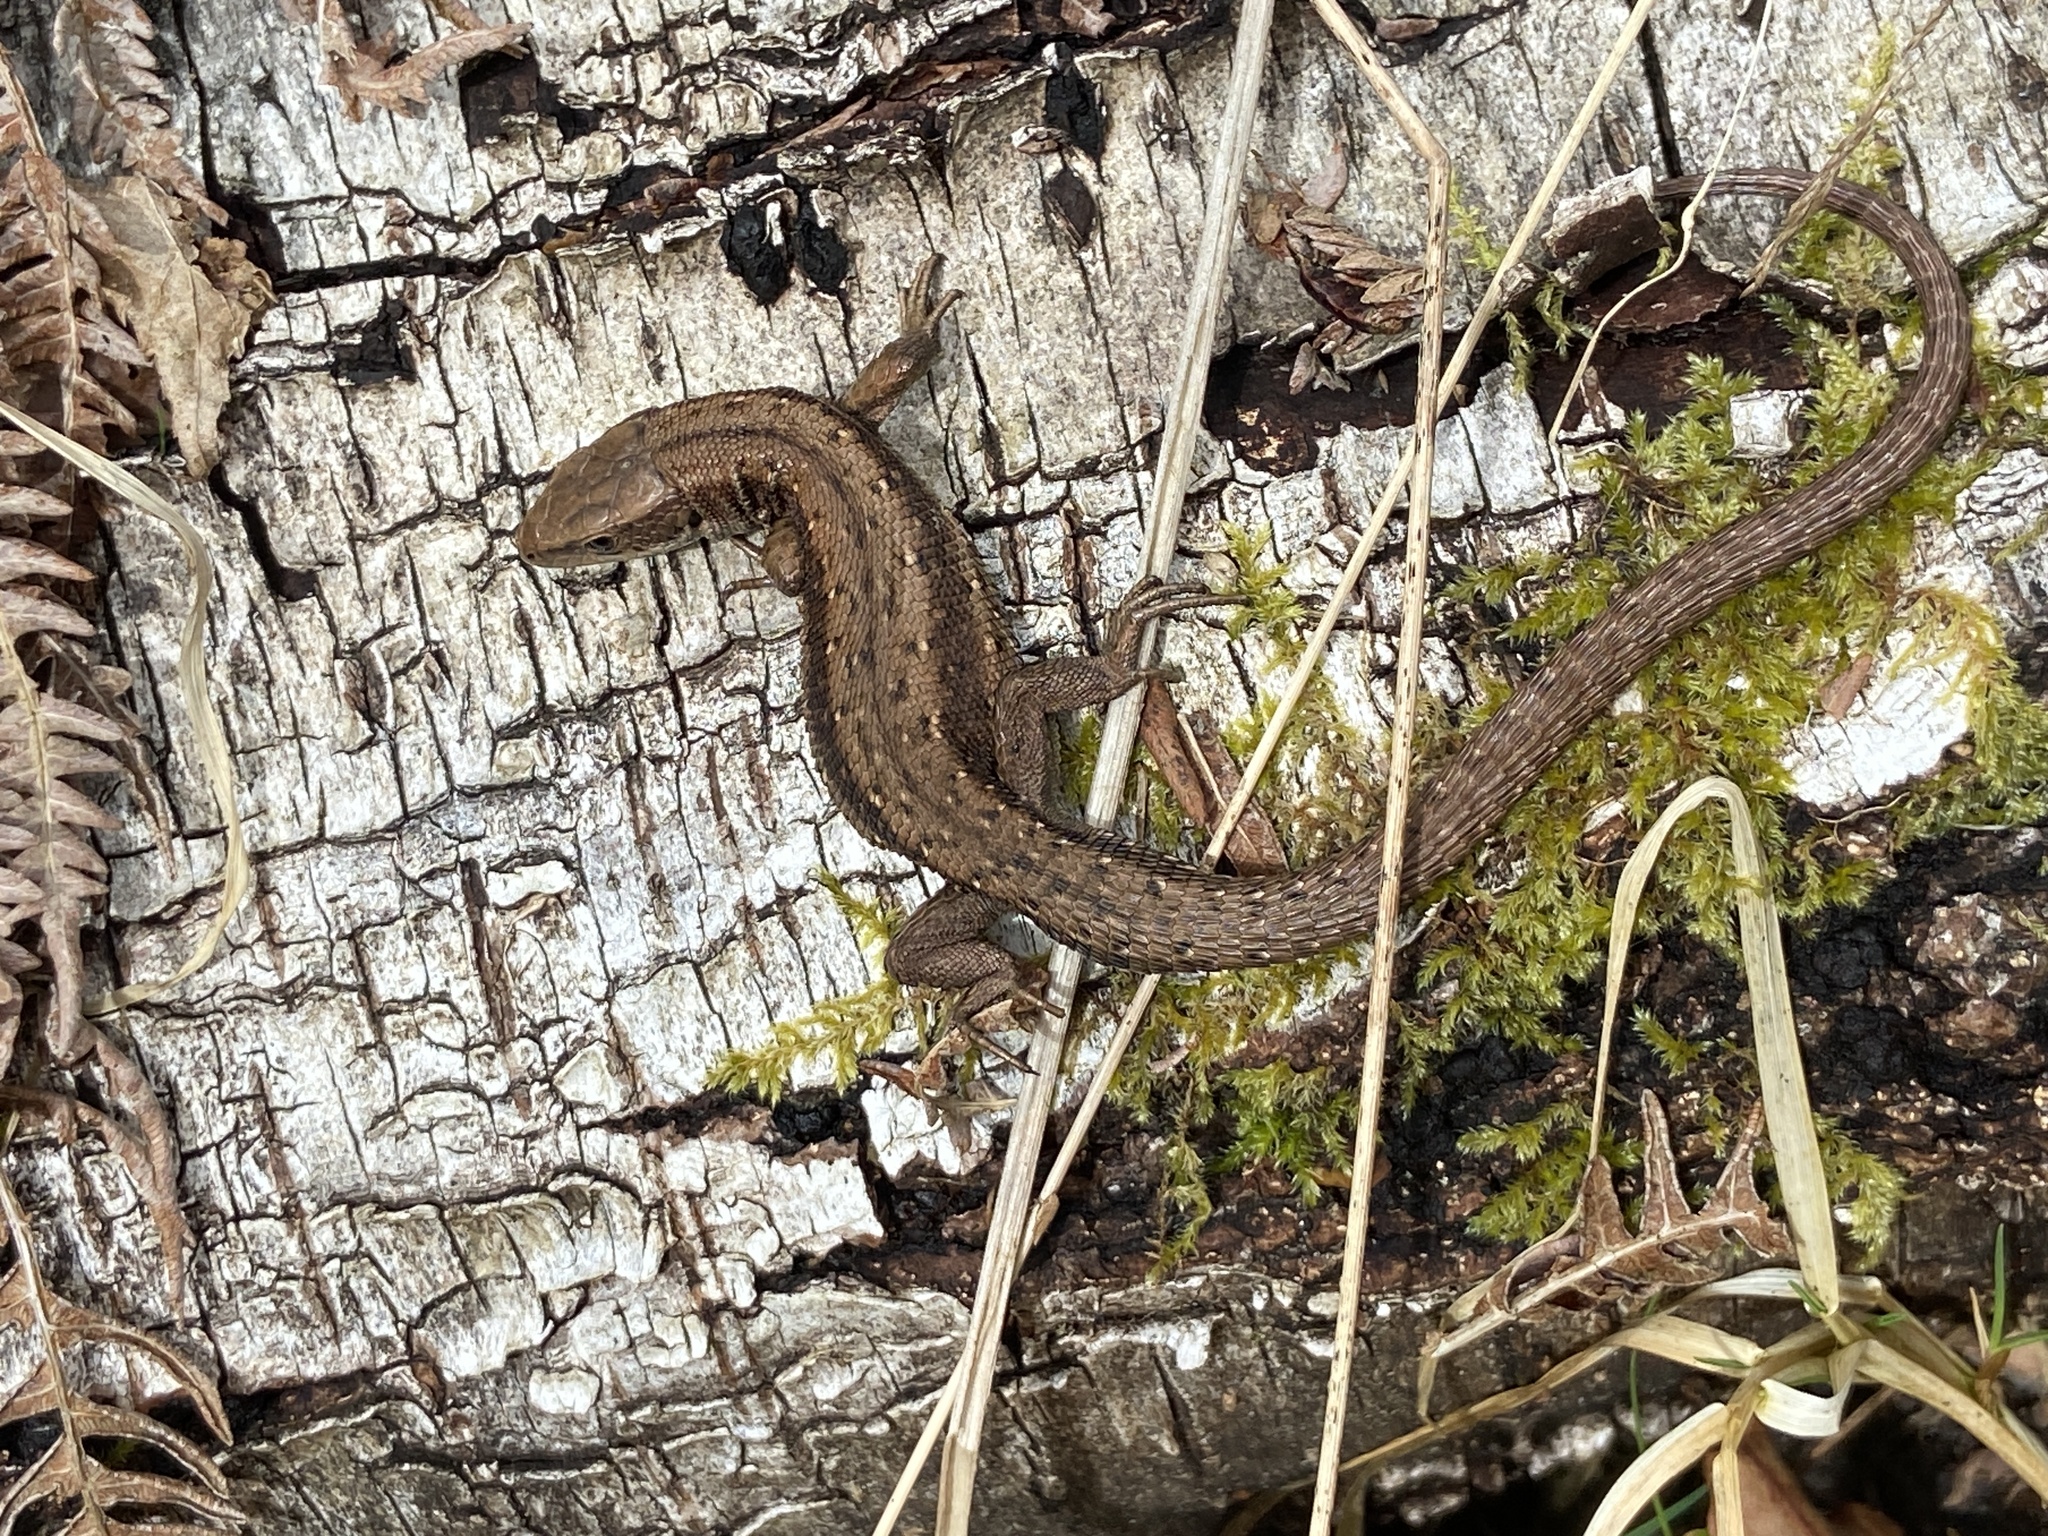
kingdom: Animalia
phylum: Chordata
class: Squamata
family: Lacertidae
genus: Zootoca
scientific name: Zootoca vivipara
